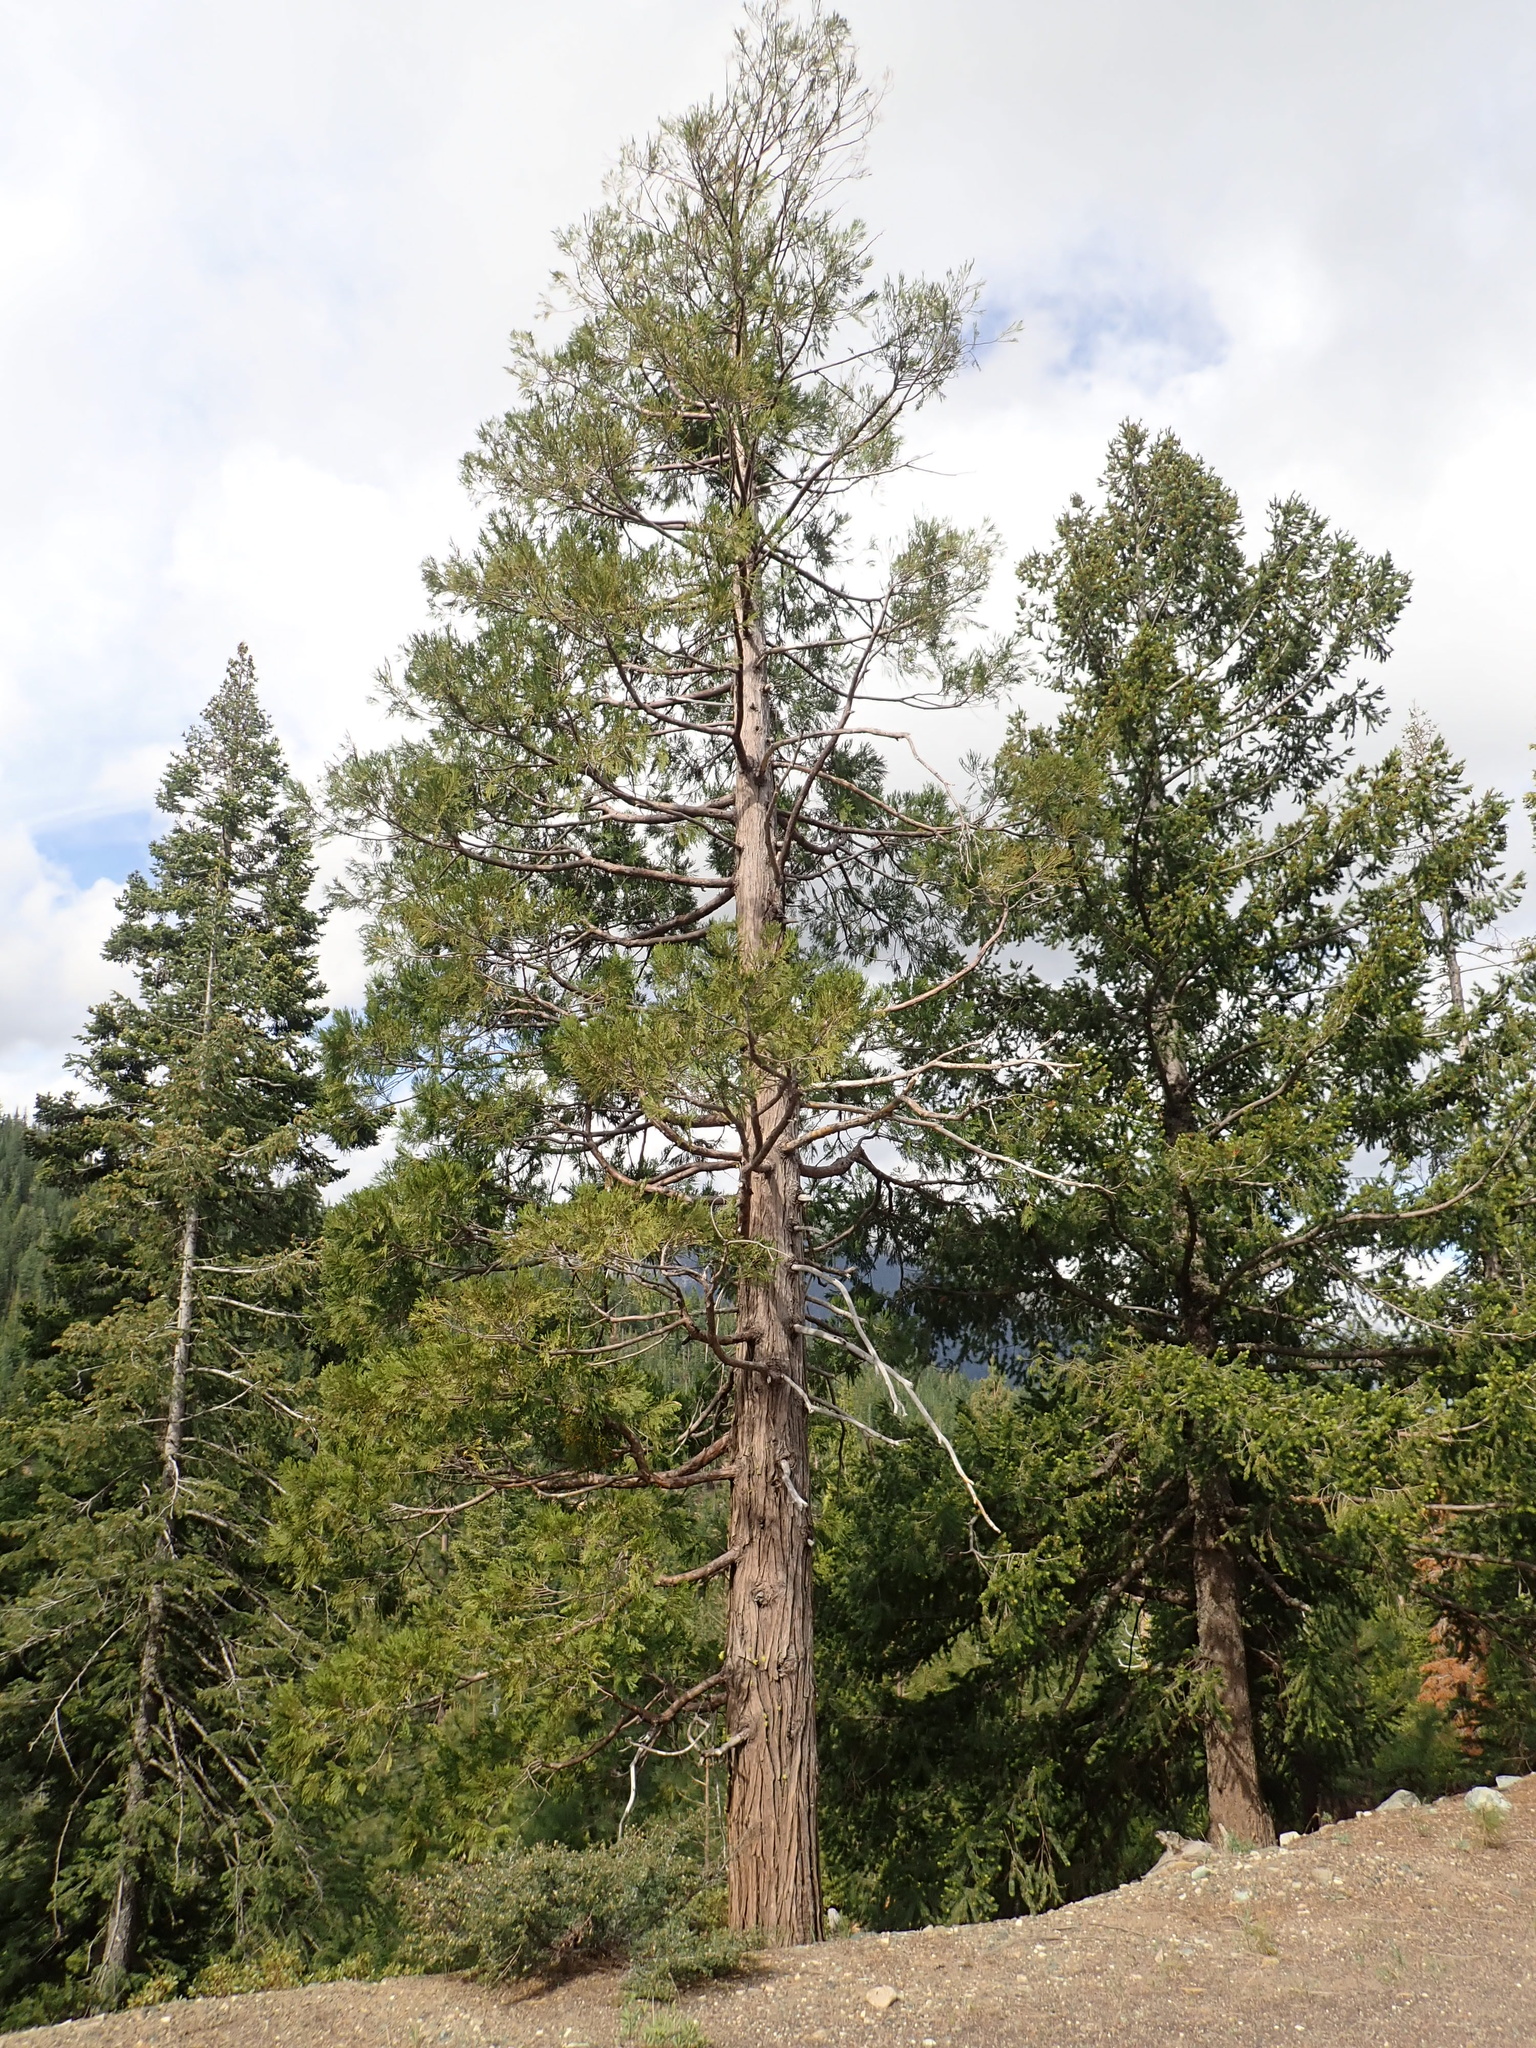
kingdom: Plantae
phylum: Tracheophyta
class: Pinopsida
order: Pinales
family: Cupressaceae
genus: Calocedrus
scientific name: Calocedrus decurrens
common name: Californian incense-cedar
